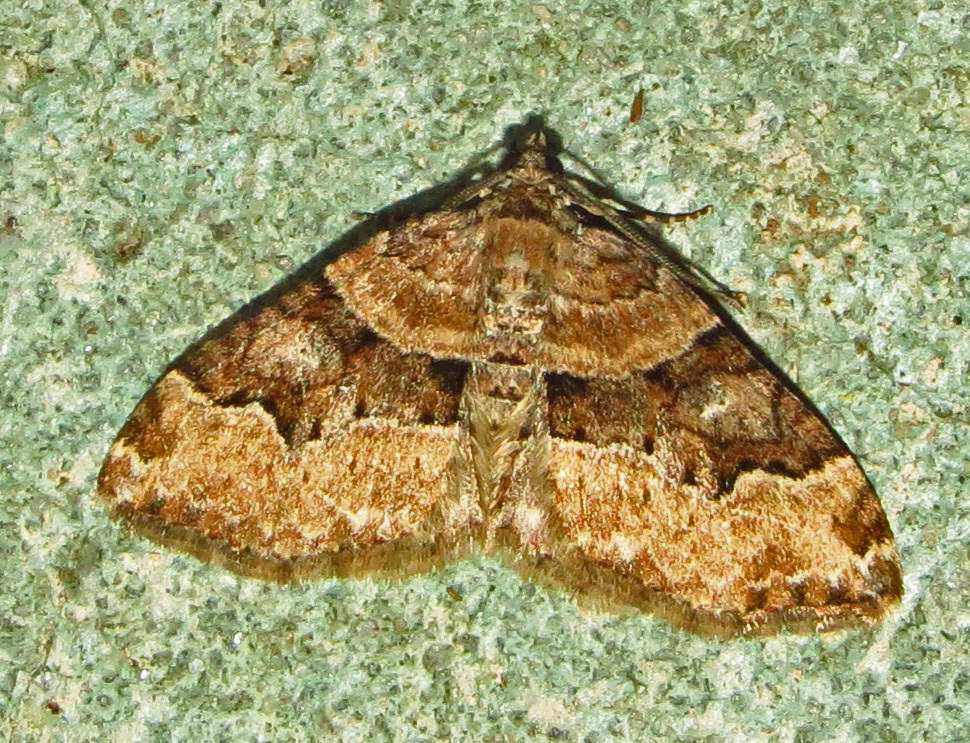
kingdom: Animalia
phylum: Arthropoda
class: Insecta
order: Lepidoptera
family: Geometridae
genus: Xanthorhoe
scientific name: Xanthorhoe lacustrata
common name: Toothed brown carpet
